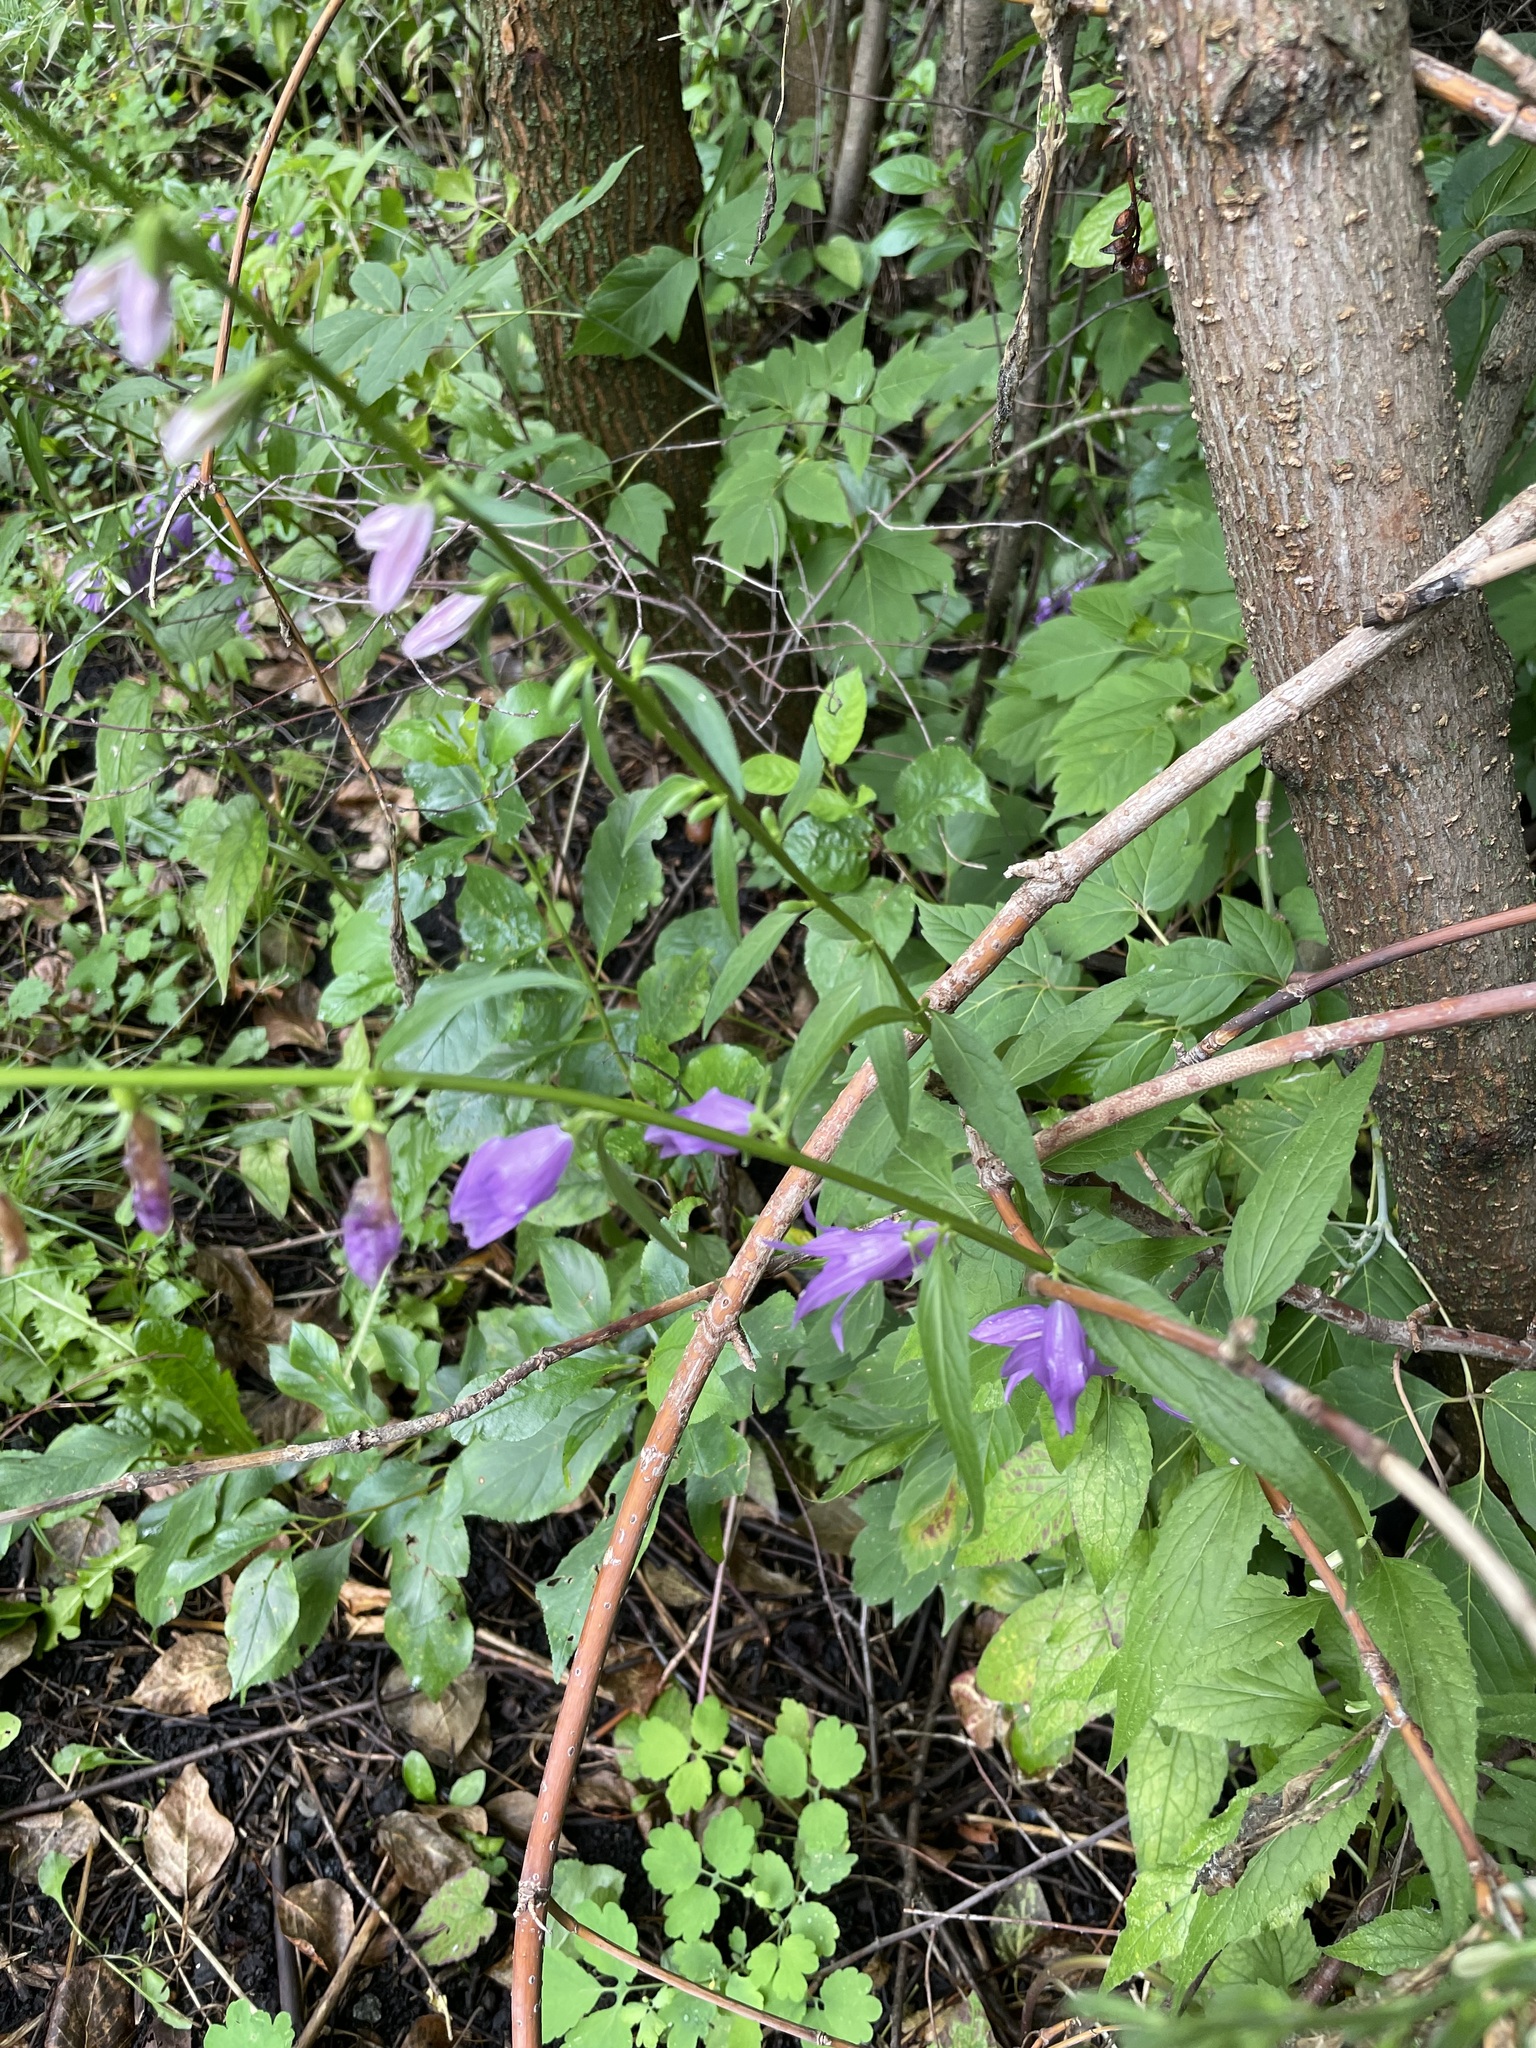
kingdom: Plantae
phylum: Tracheophyta
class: Magnoliopsida
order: Asterales
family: Campanulaceae
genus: Campanula
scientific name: Campanula rapunculoides
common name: Creeping bellflower
